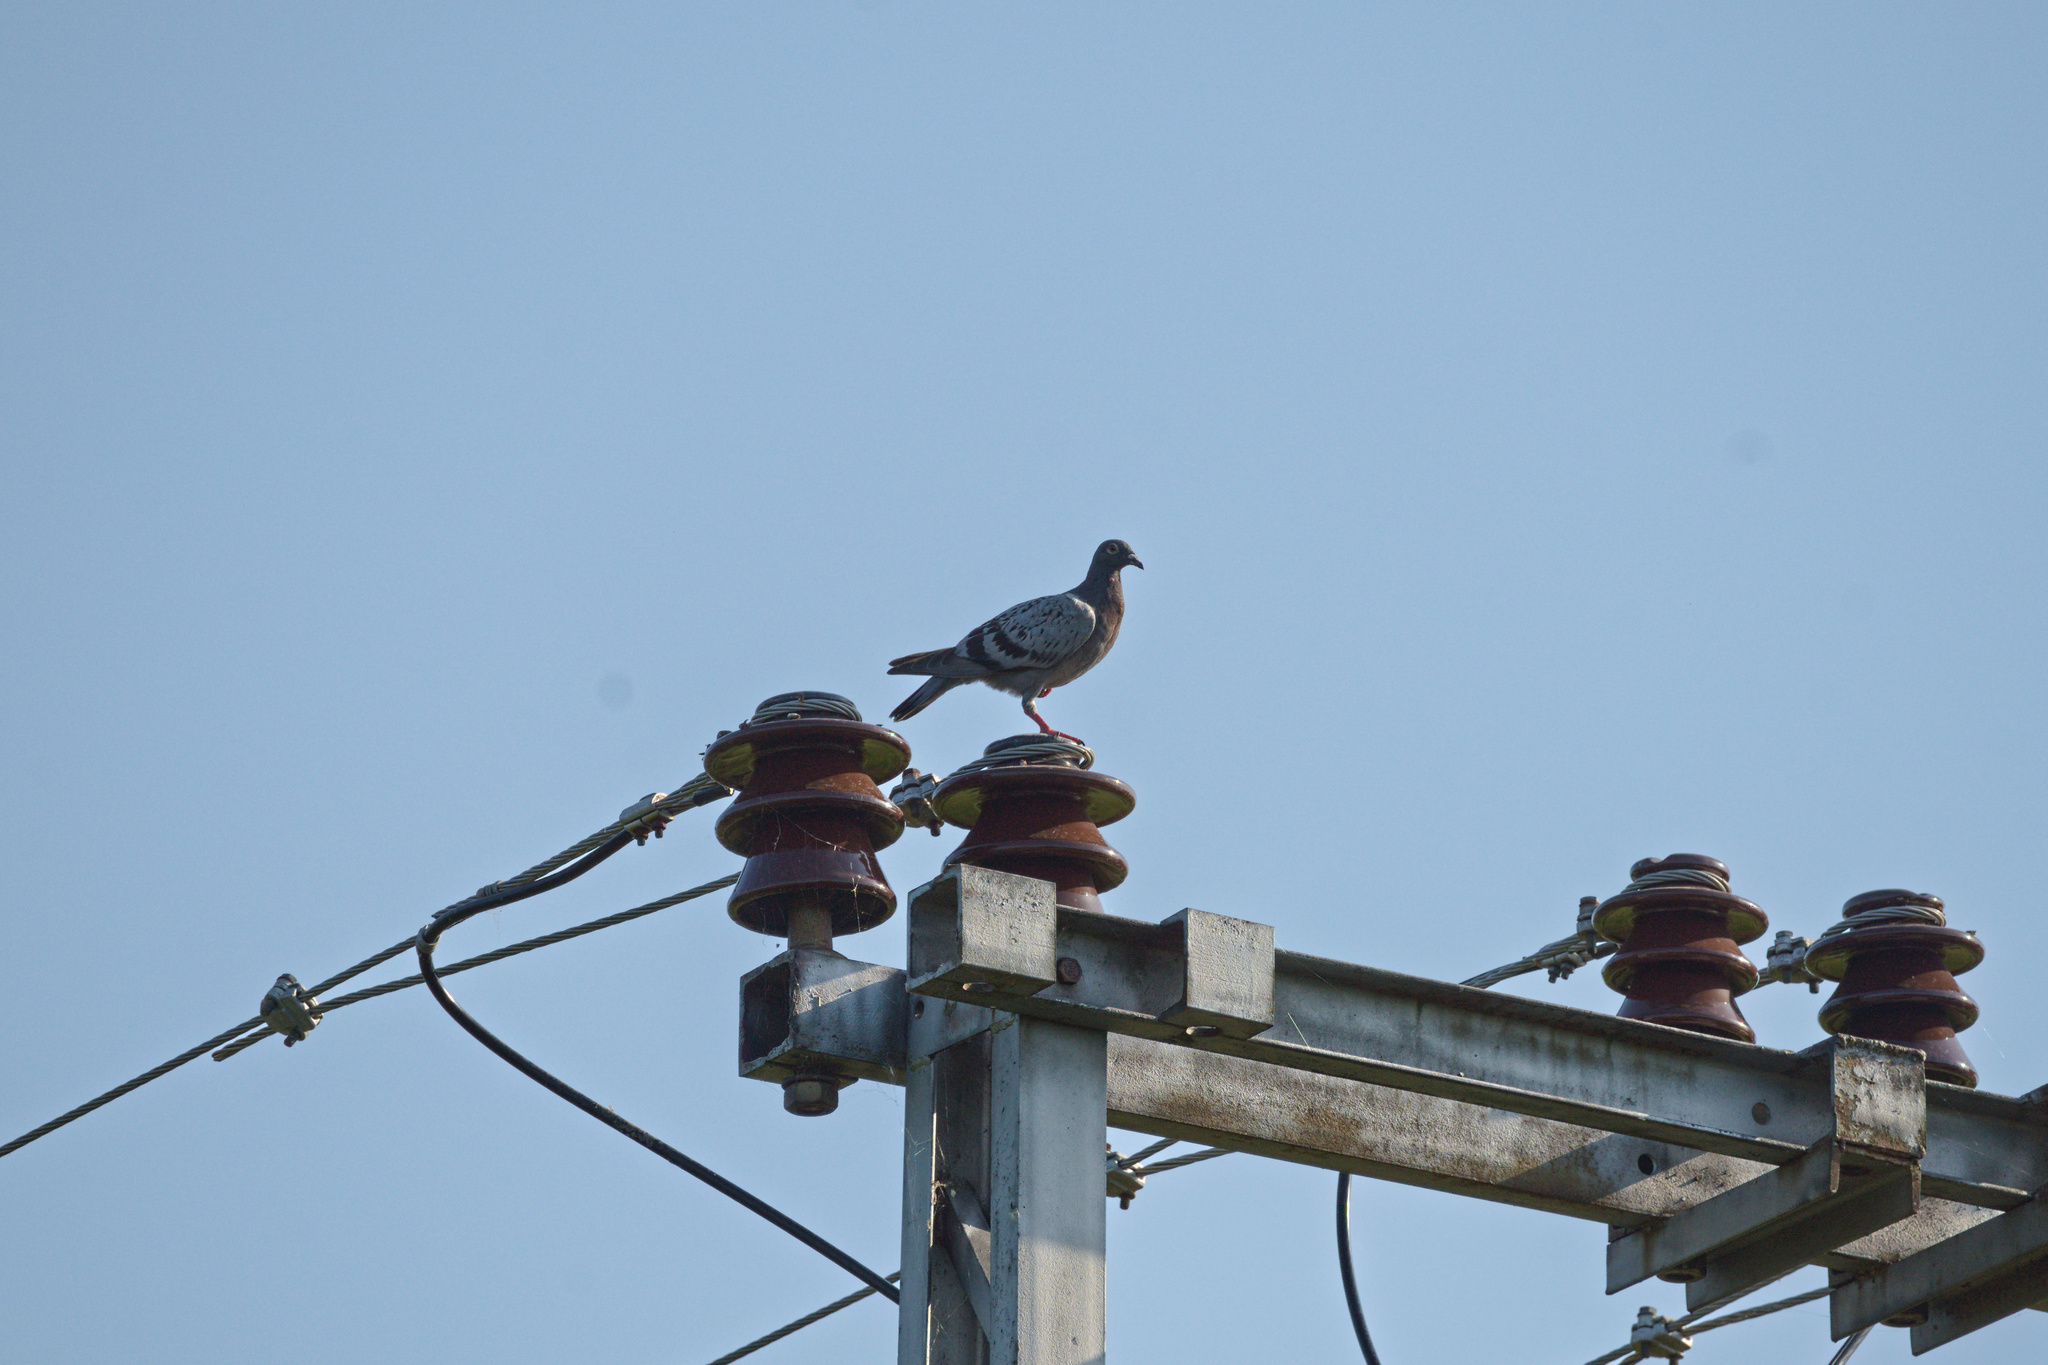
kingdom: Animalia
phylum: Chordata
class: Aves
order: Columbiformes
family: Columbidae
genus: Columba
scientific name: Columba livia
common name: Rock pigeon
